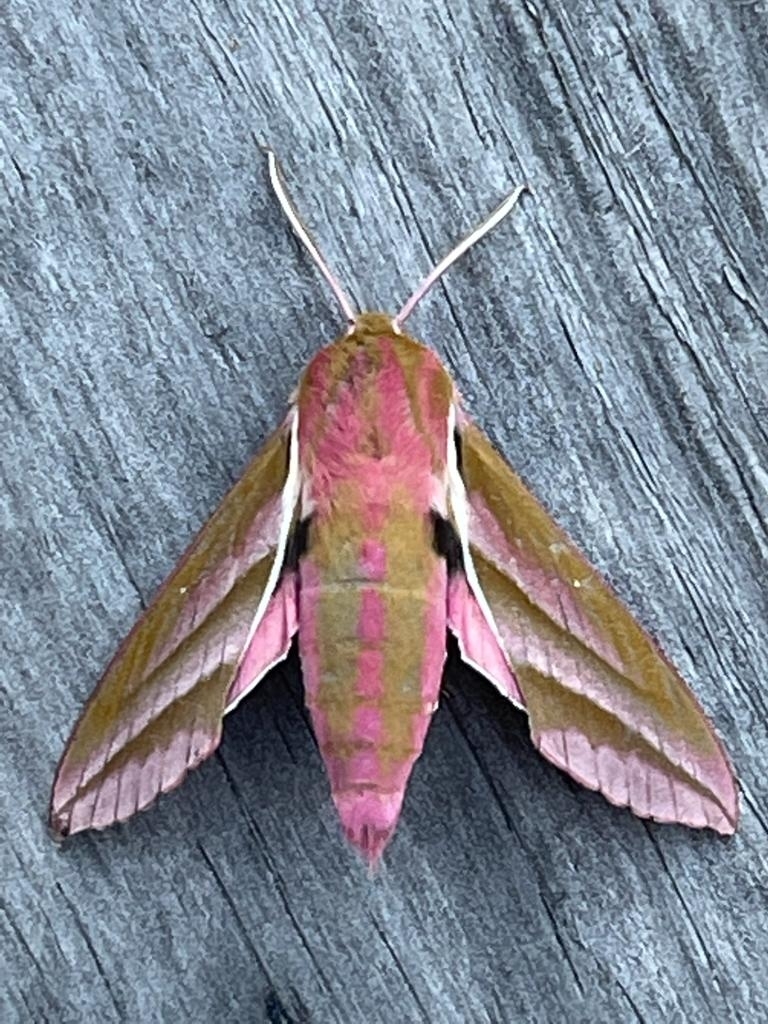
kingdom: Animalia
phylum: Arthropoda
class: Insecta
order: Lepidoptera
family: Sphingidae
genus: Deilephila
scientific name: Deilephila elpenor
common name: Elephant hawk-moth
